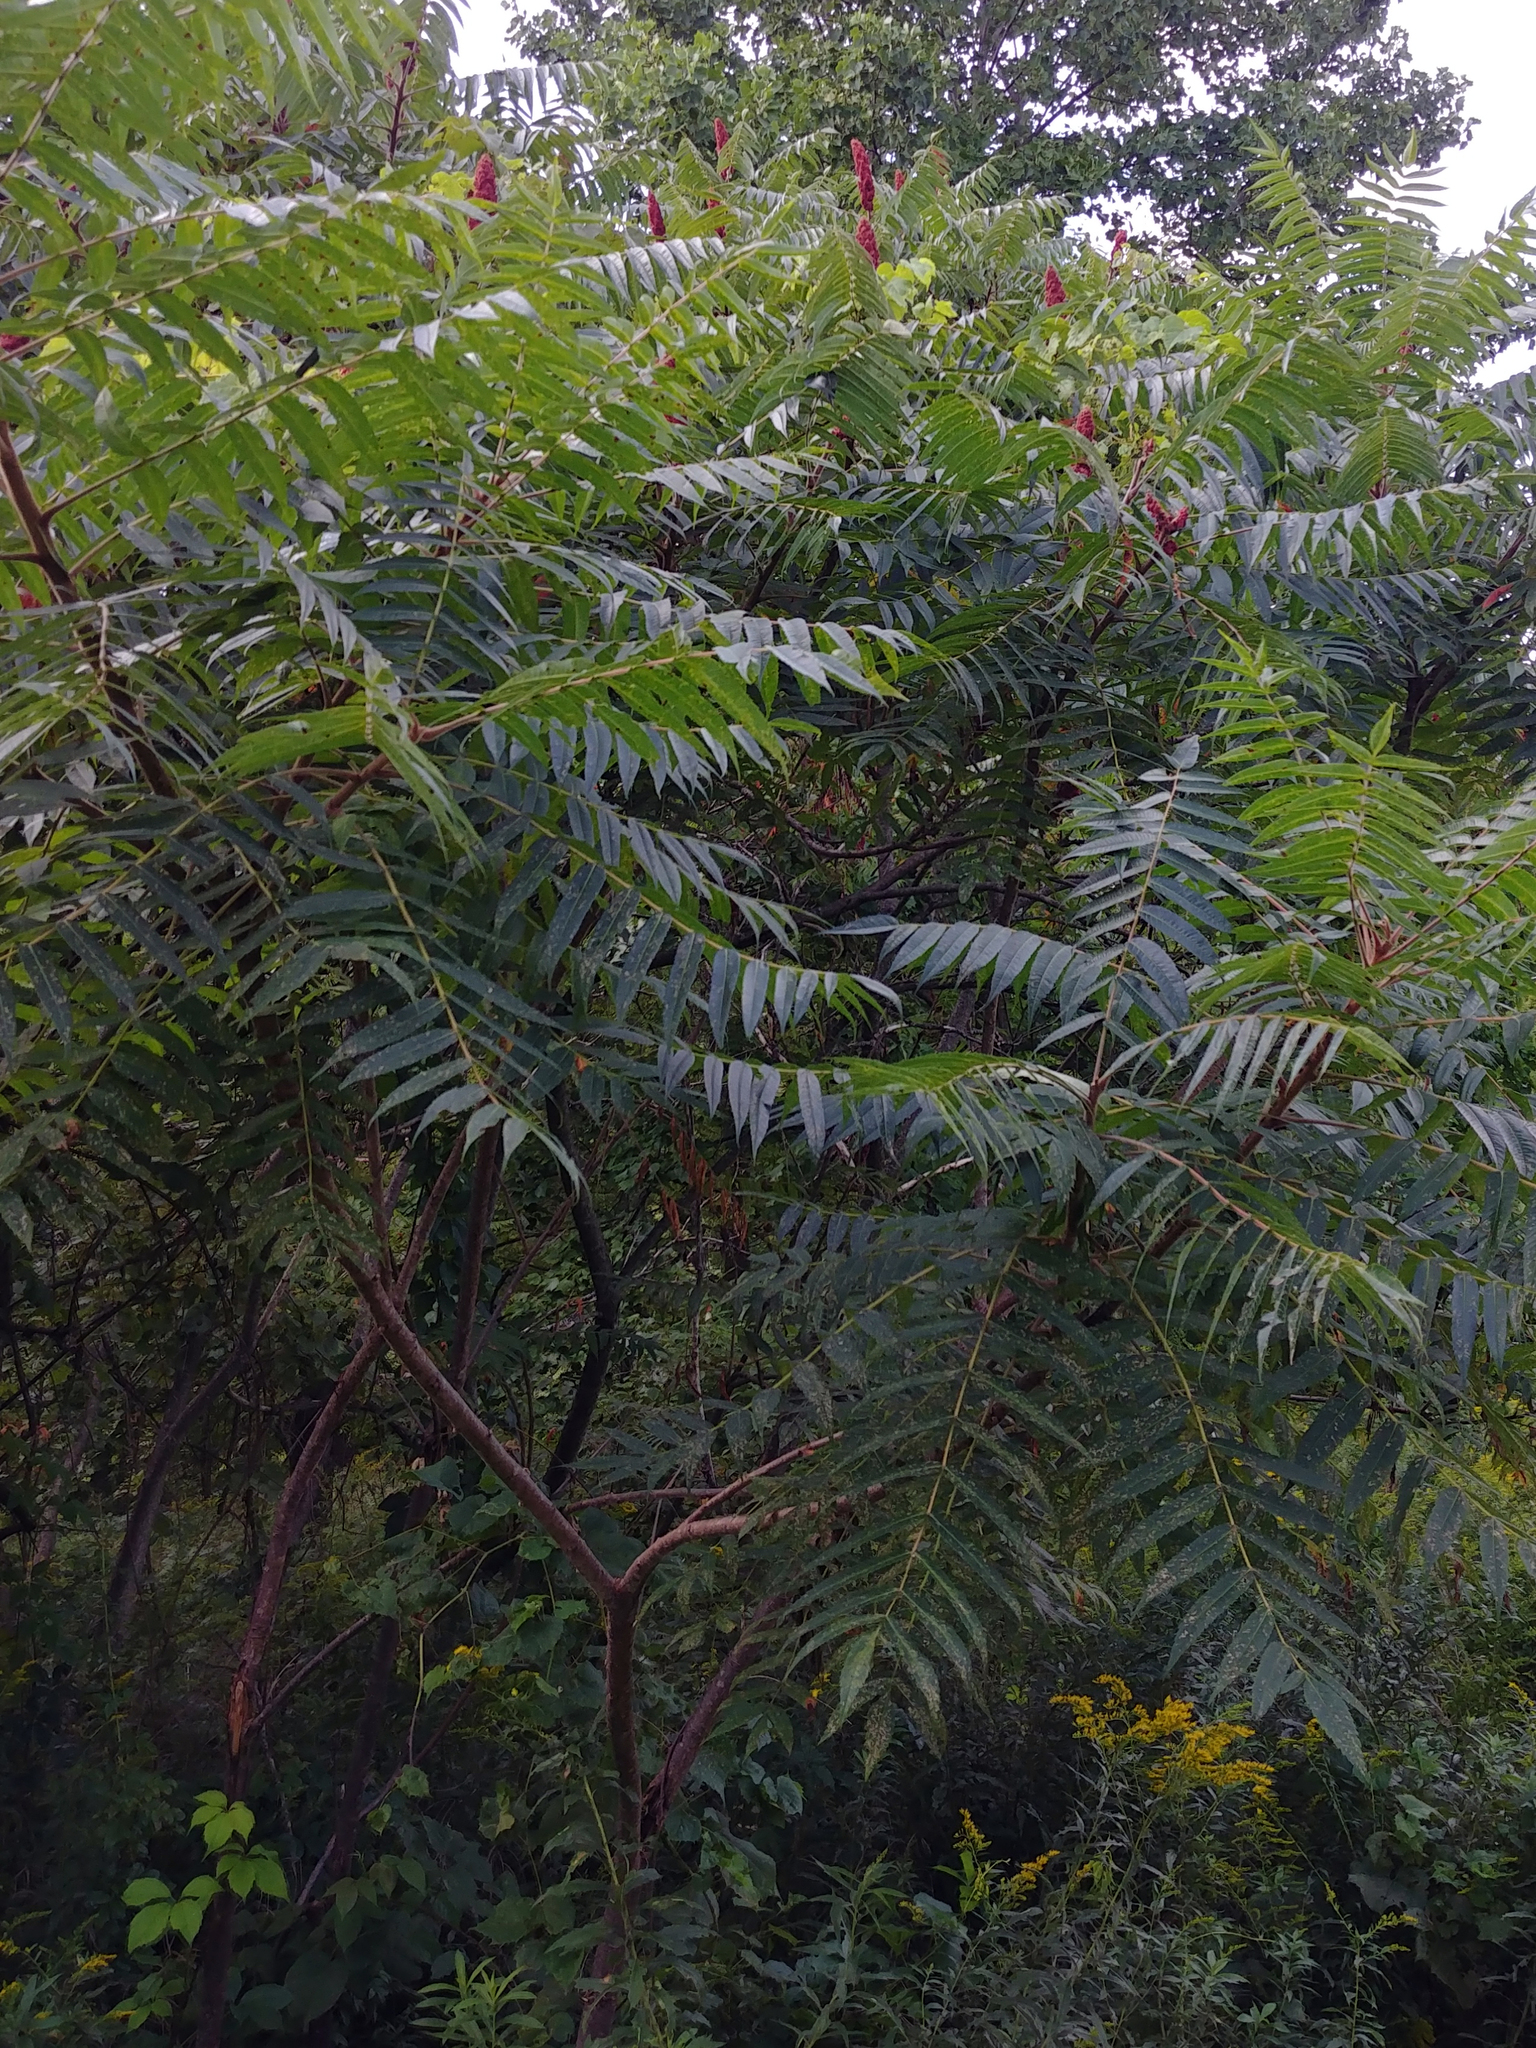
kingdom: Plantae
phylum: Tracheophyta
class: Magnoliopsida
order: Sapindales
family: Anacardiaceae
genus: Rhus
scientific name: Rhus typhina
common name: Staghorn sumac
